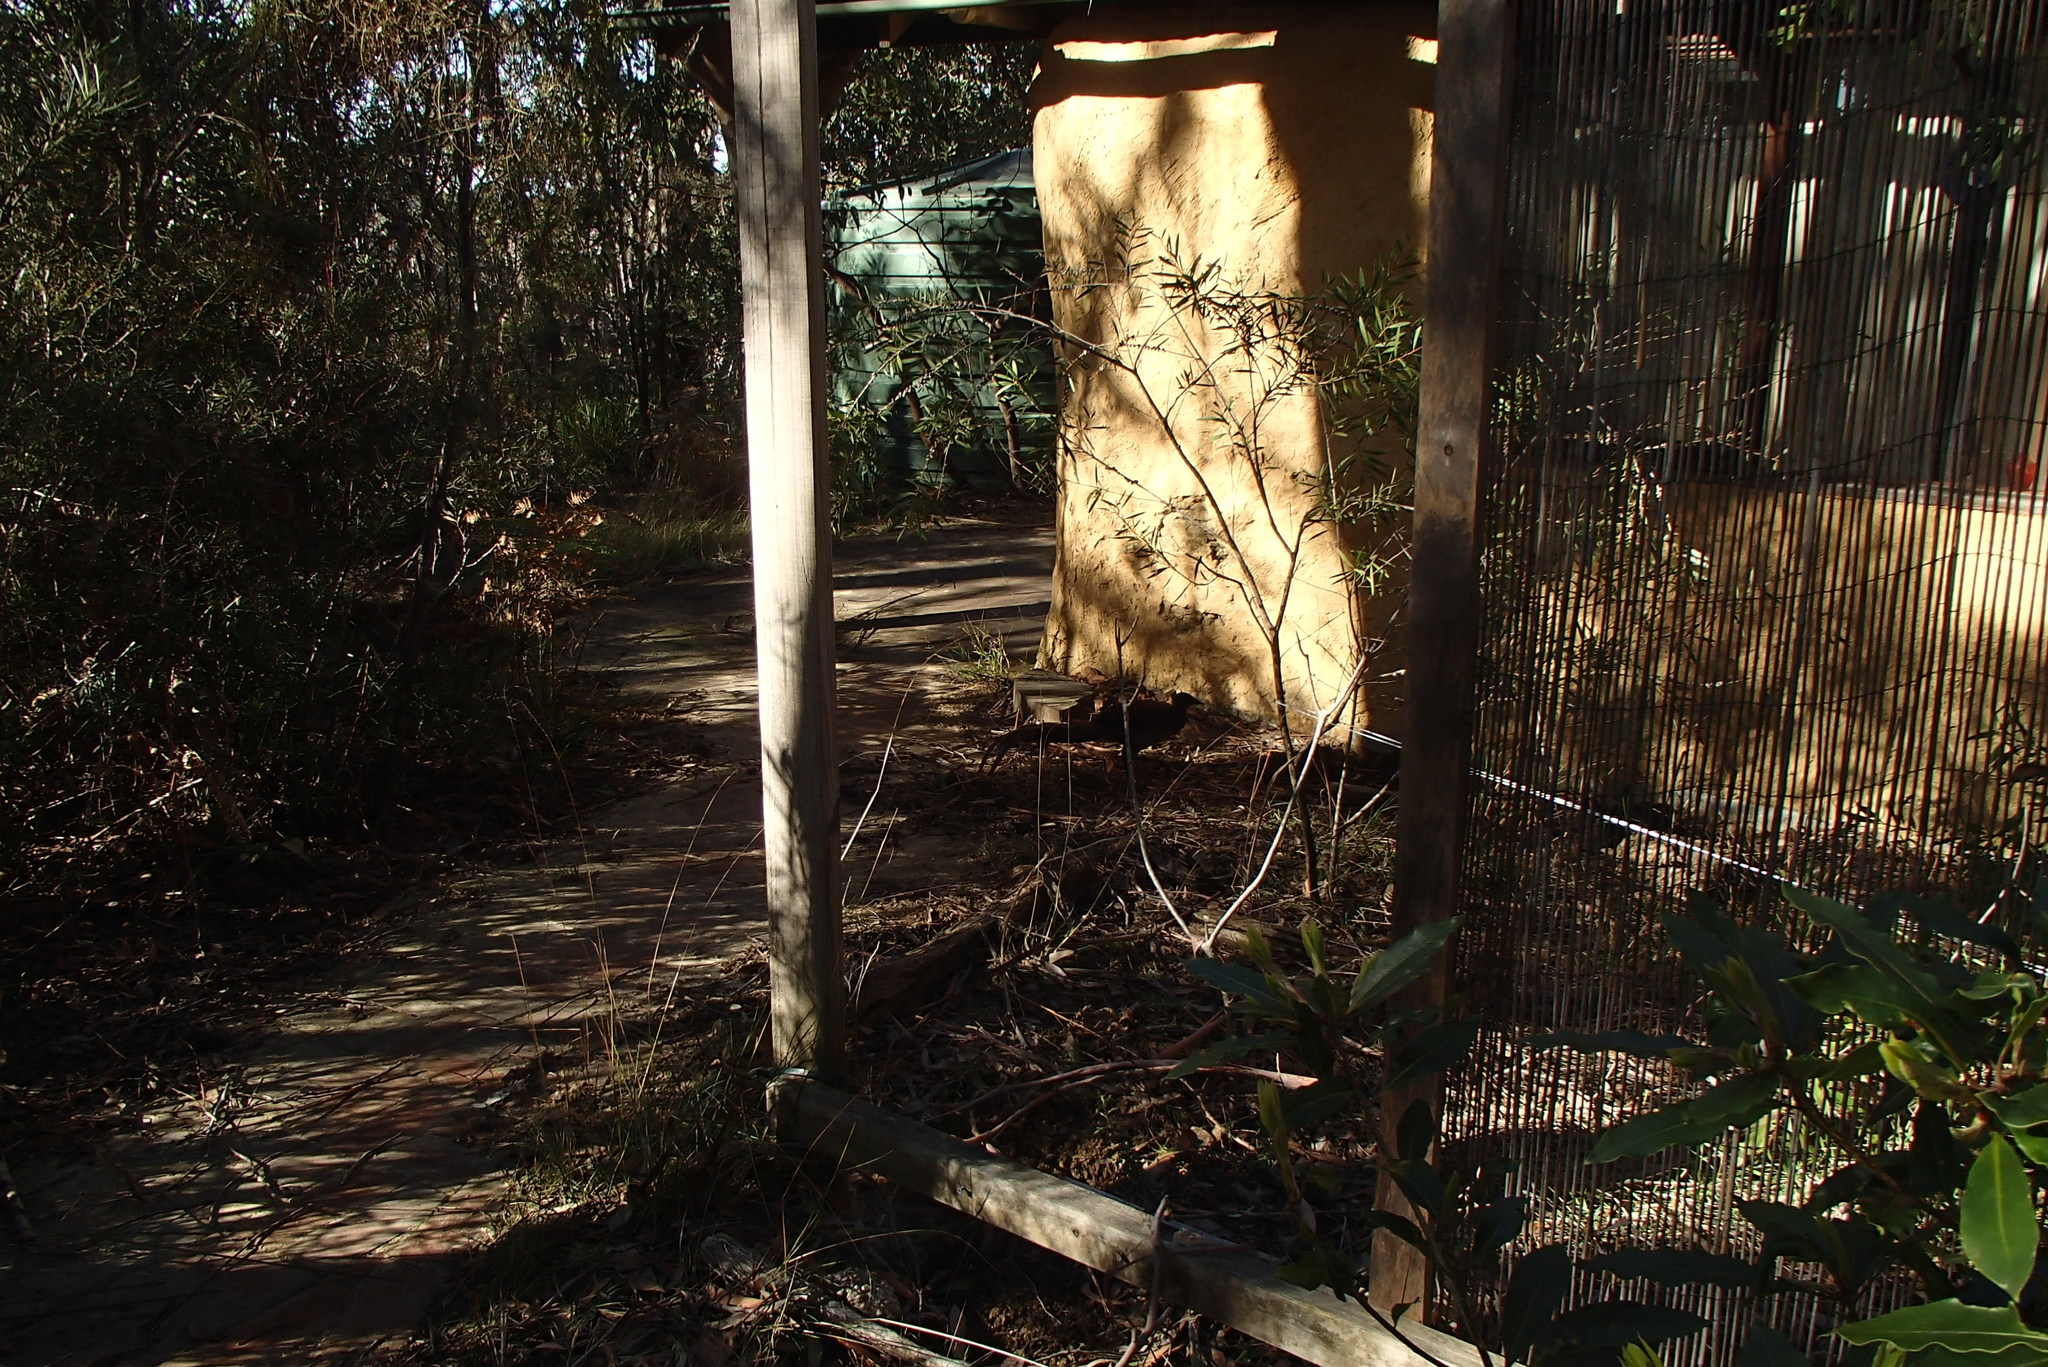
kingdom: Animalia
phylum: Chordata
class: Aves
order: Passeriformes
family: Menuridae
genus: Menura
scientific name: Menura novaehollandiae
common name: Superb lyrebird
